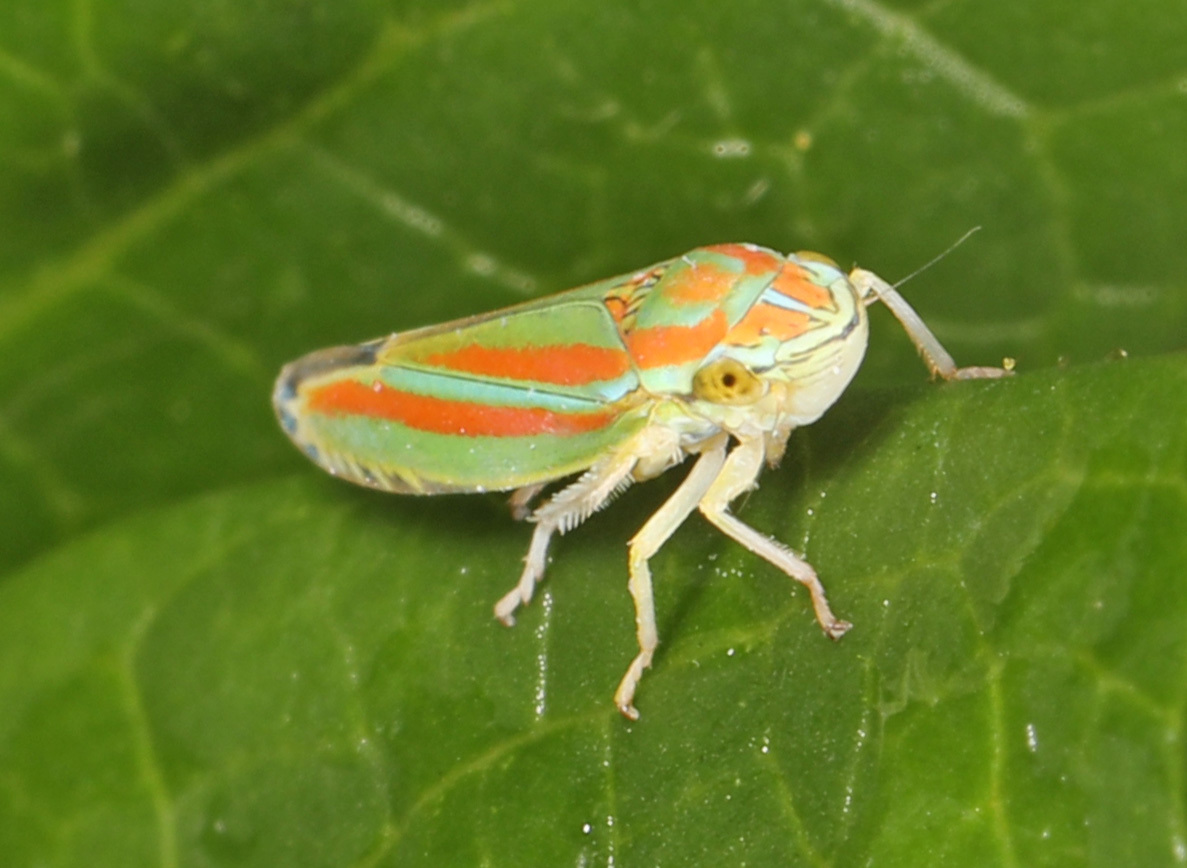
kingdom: Animalia
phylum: Arthropoda
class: Insecta
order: Hemiptera
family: Cicadellidae
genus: Graphocephala
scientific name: Graphocephala versuta
